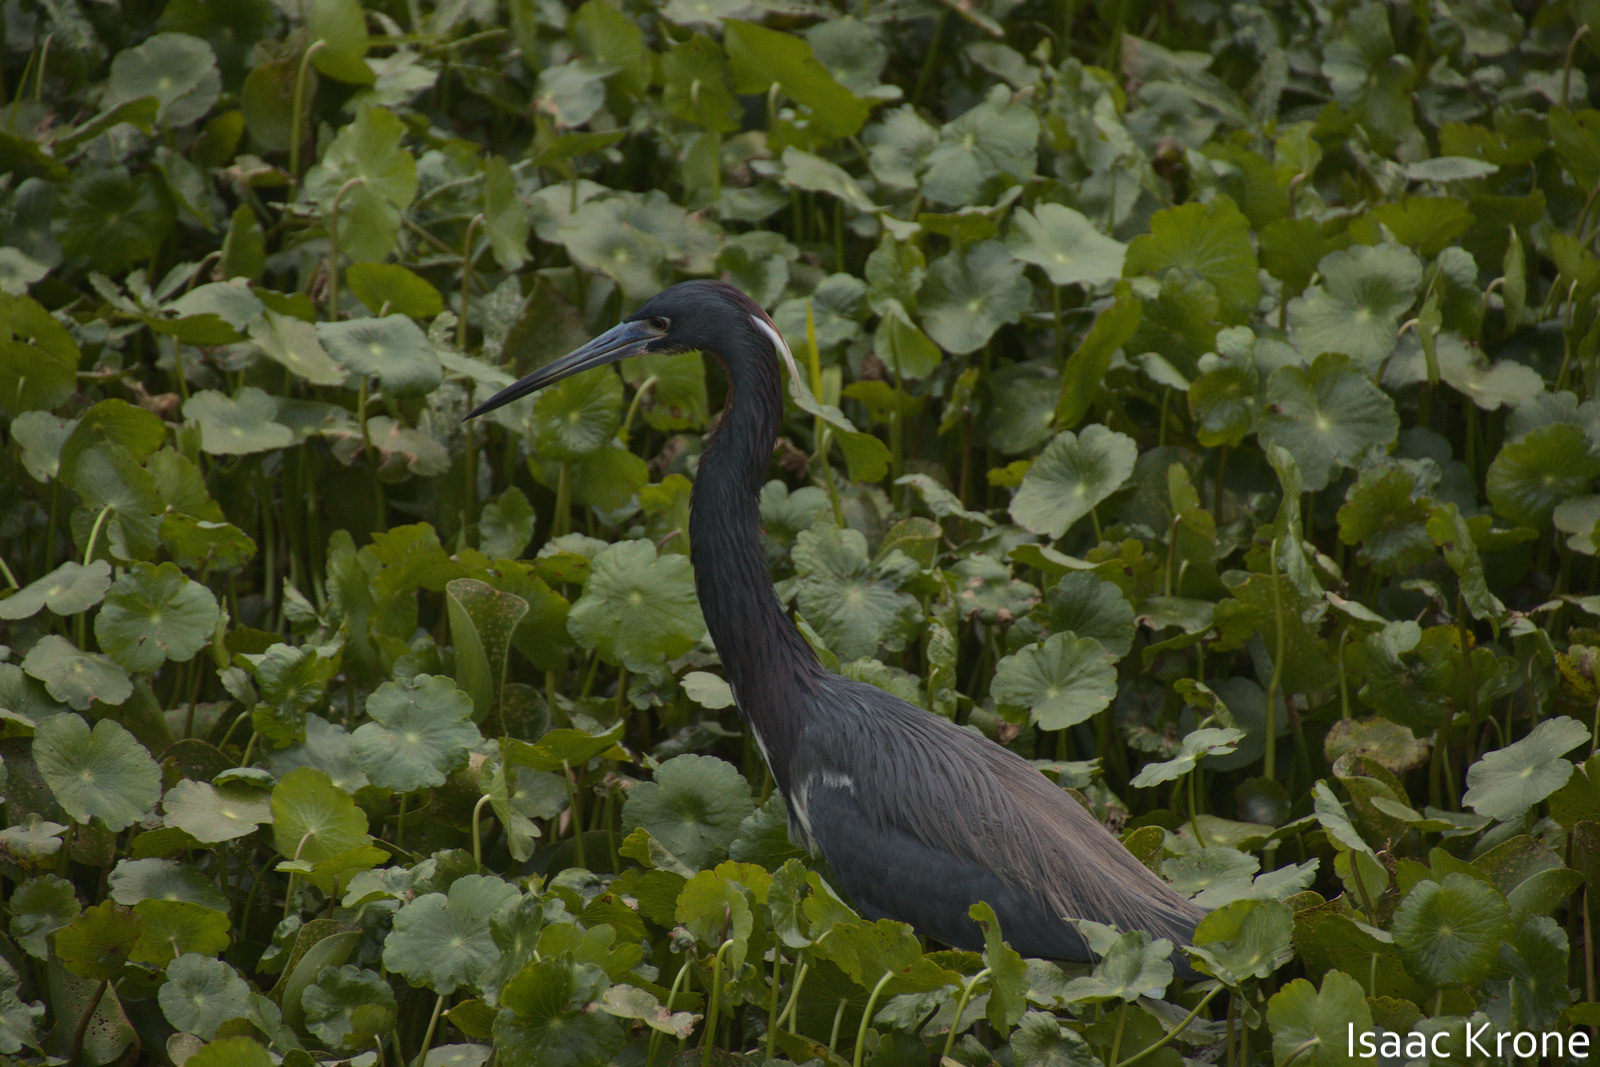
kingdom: Animalia
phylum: Chordata
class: Aves
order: Pelecaniformes
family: Ardeidae
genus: Egretta
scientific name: Egretta tricolor
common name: Tricolored heron
